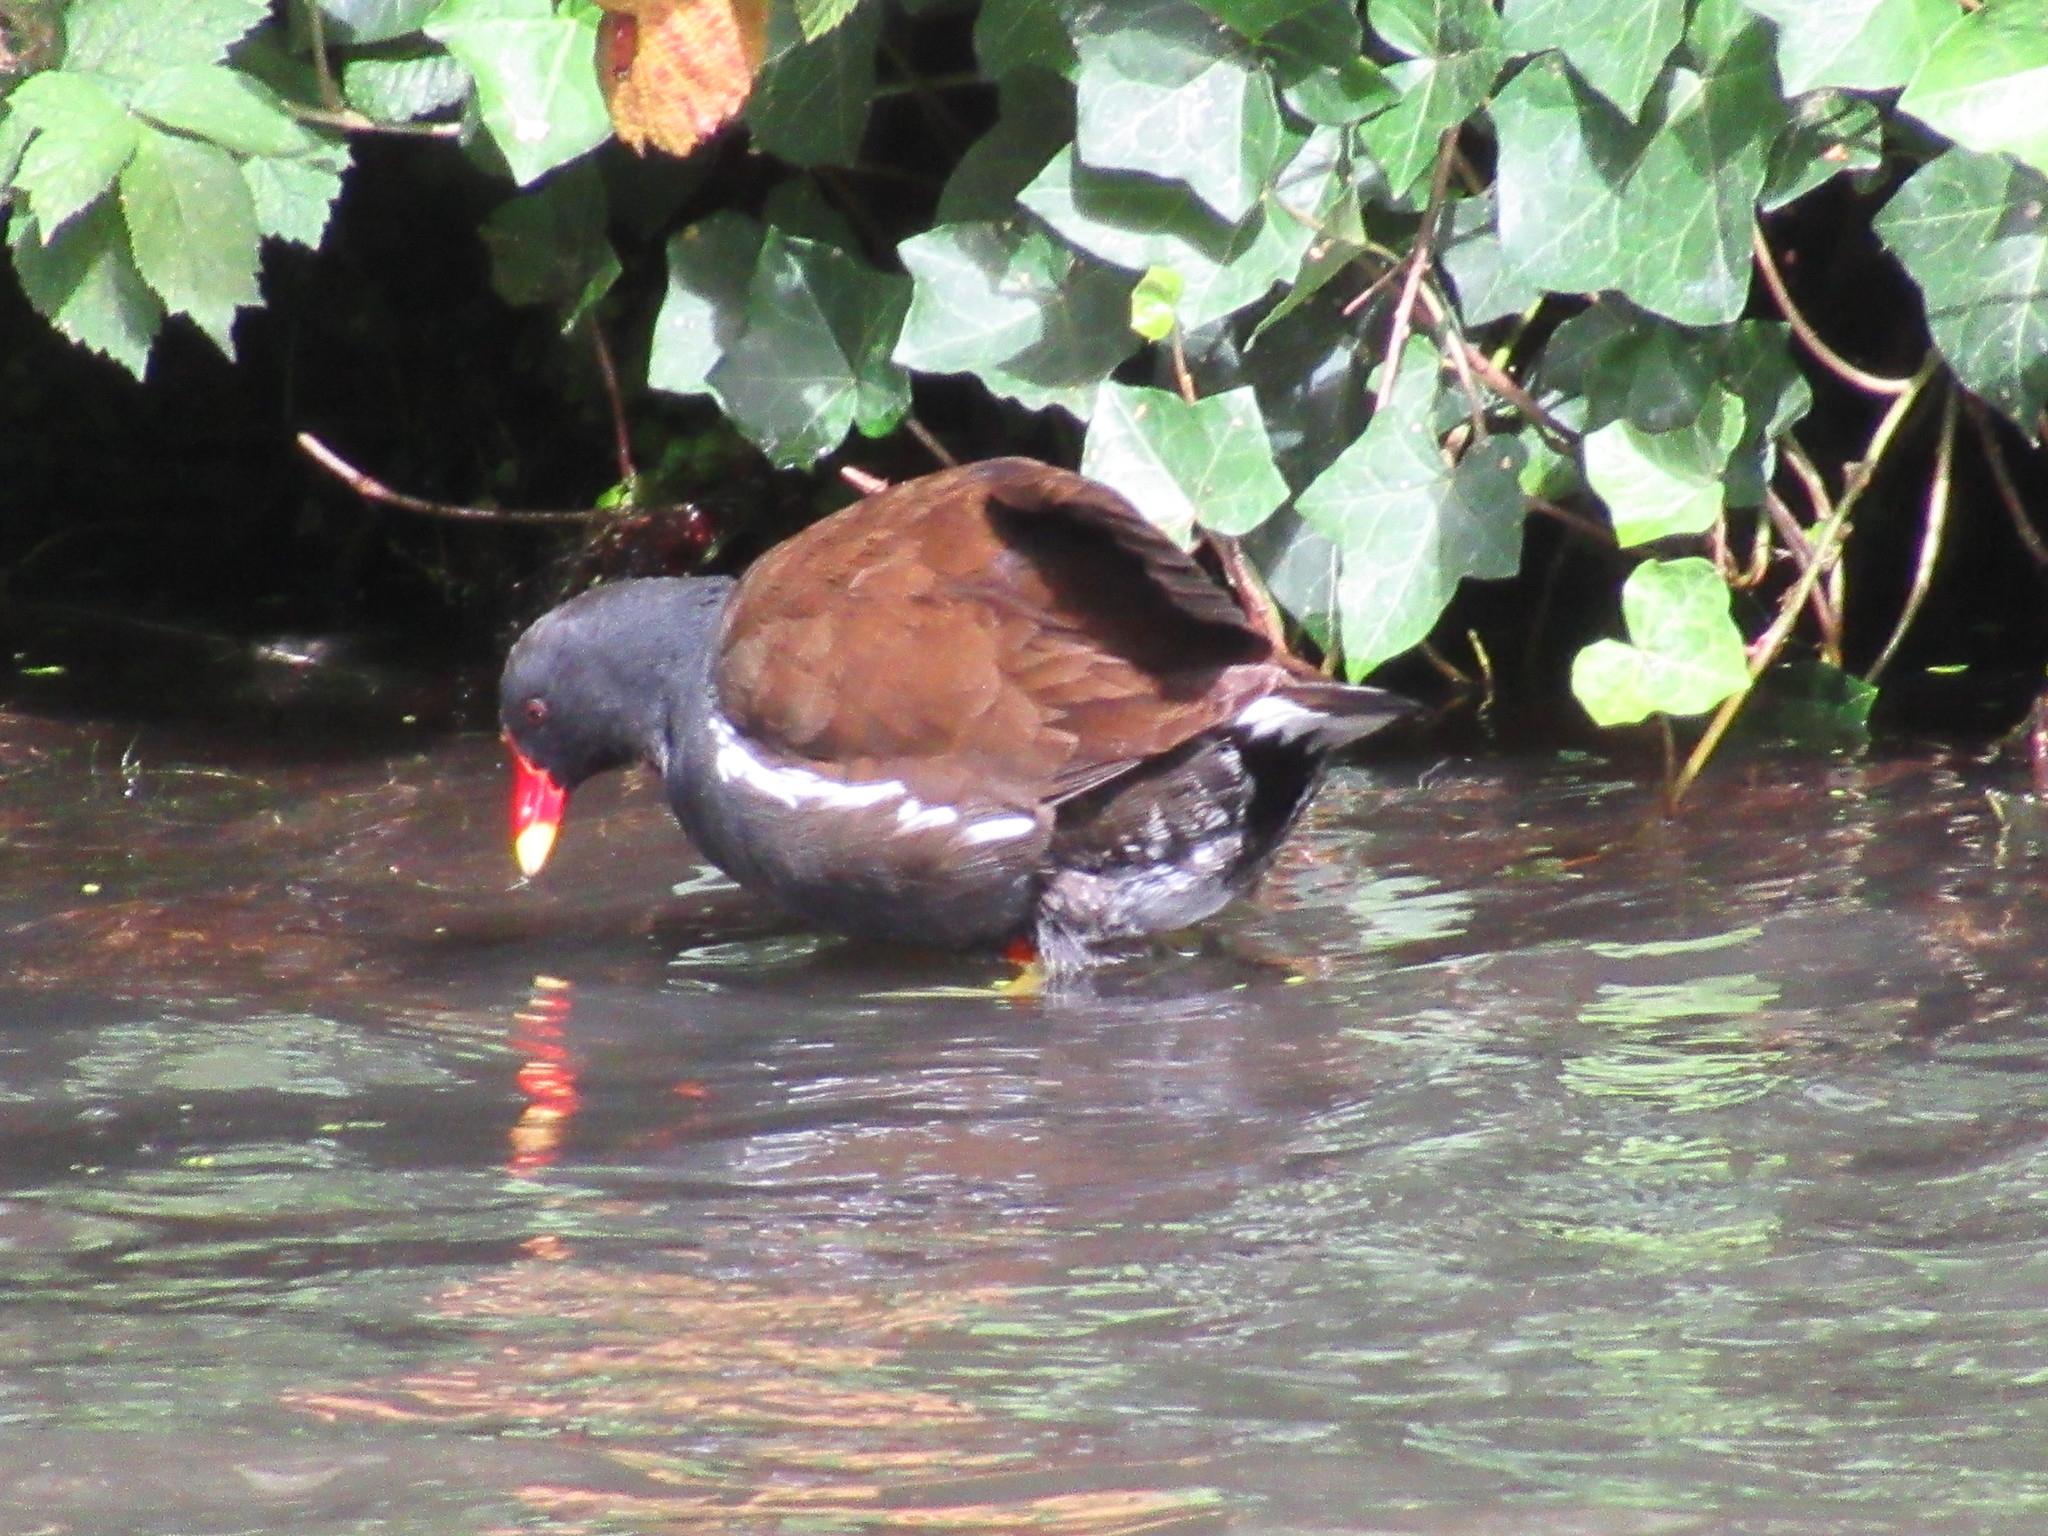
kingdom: Animalia
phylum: Chordata
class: Aves
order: Gruiformes
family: Rallidae
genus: Gallinula
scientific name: Gallinula chloropus
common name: Common moorhen
